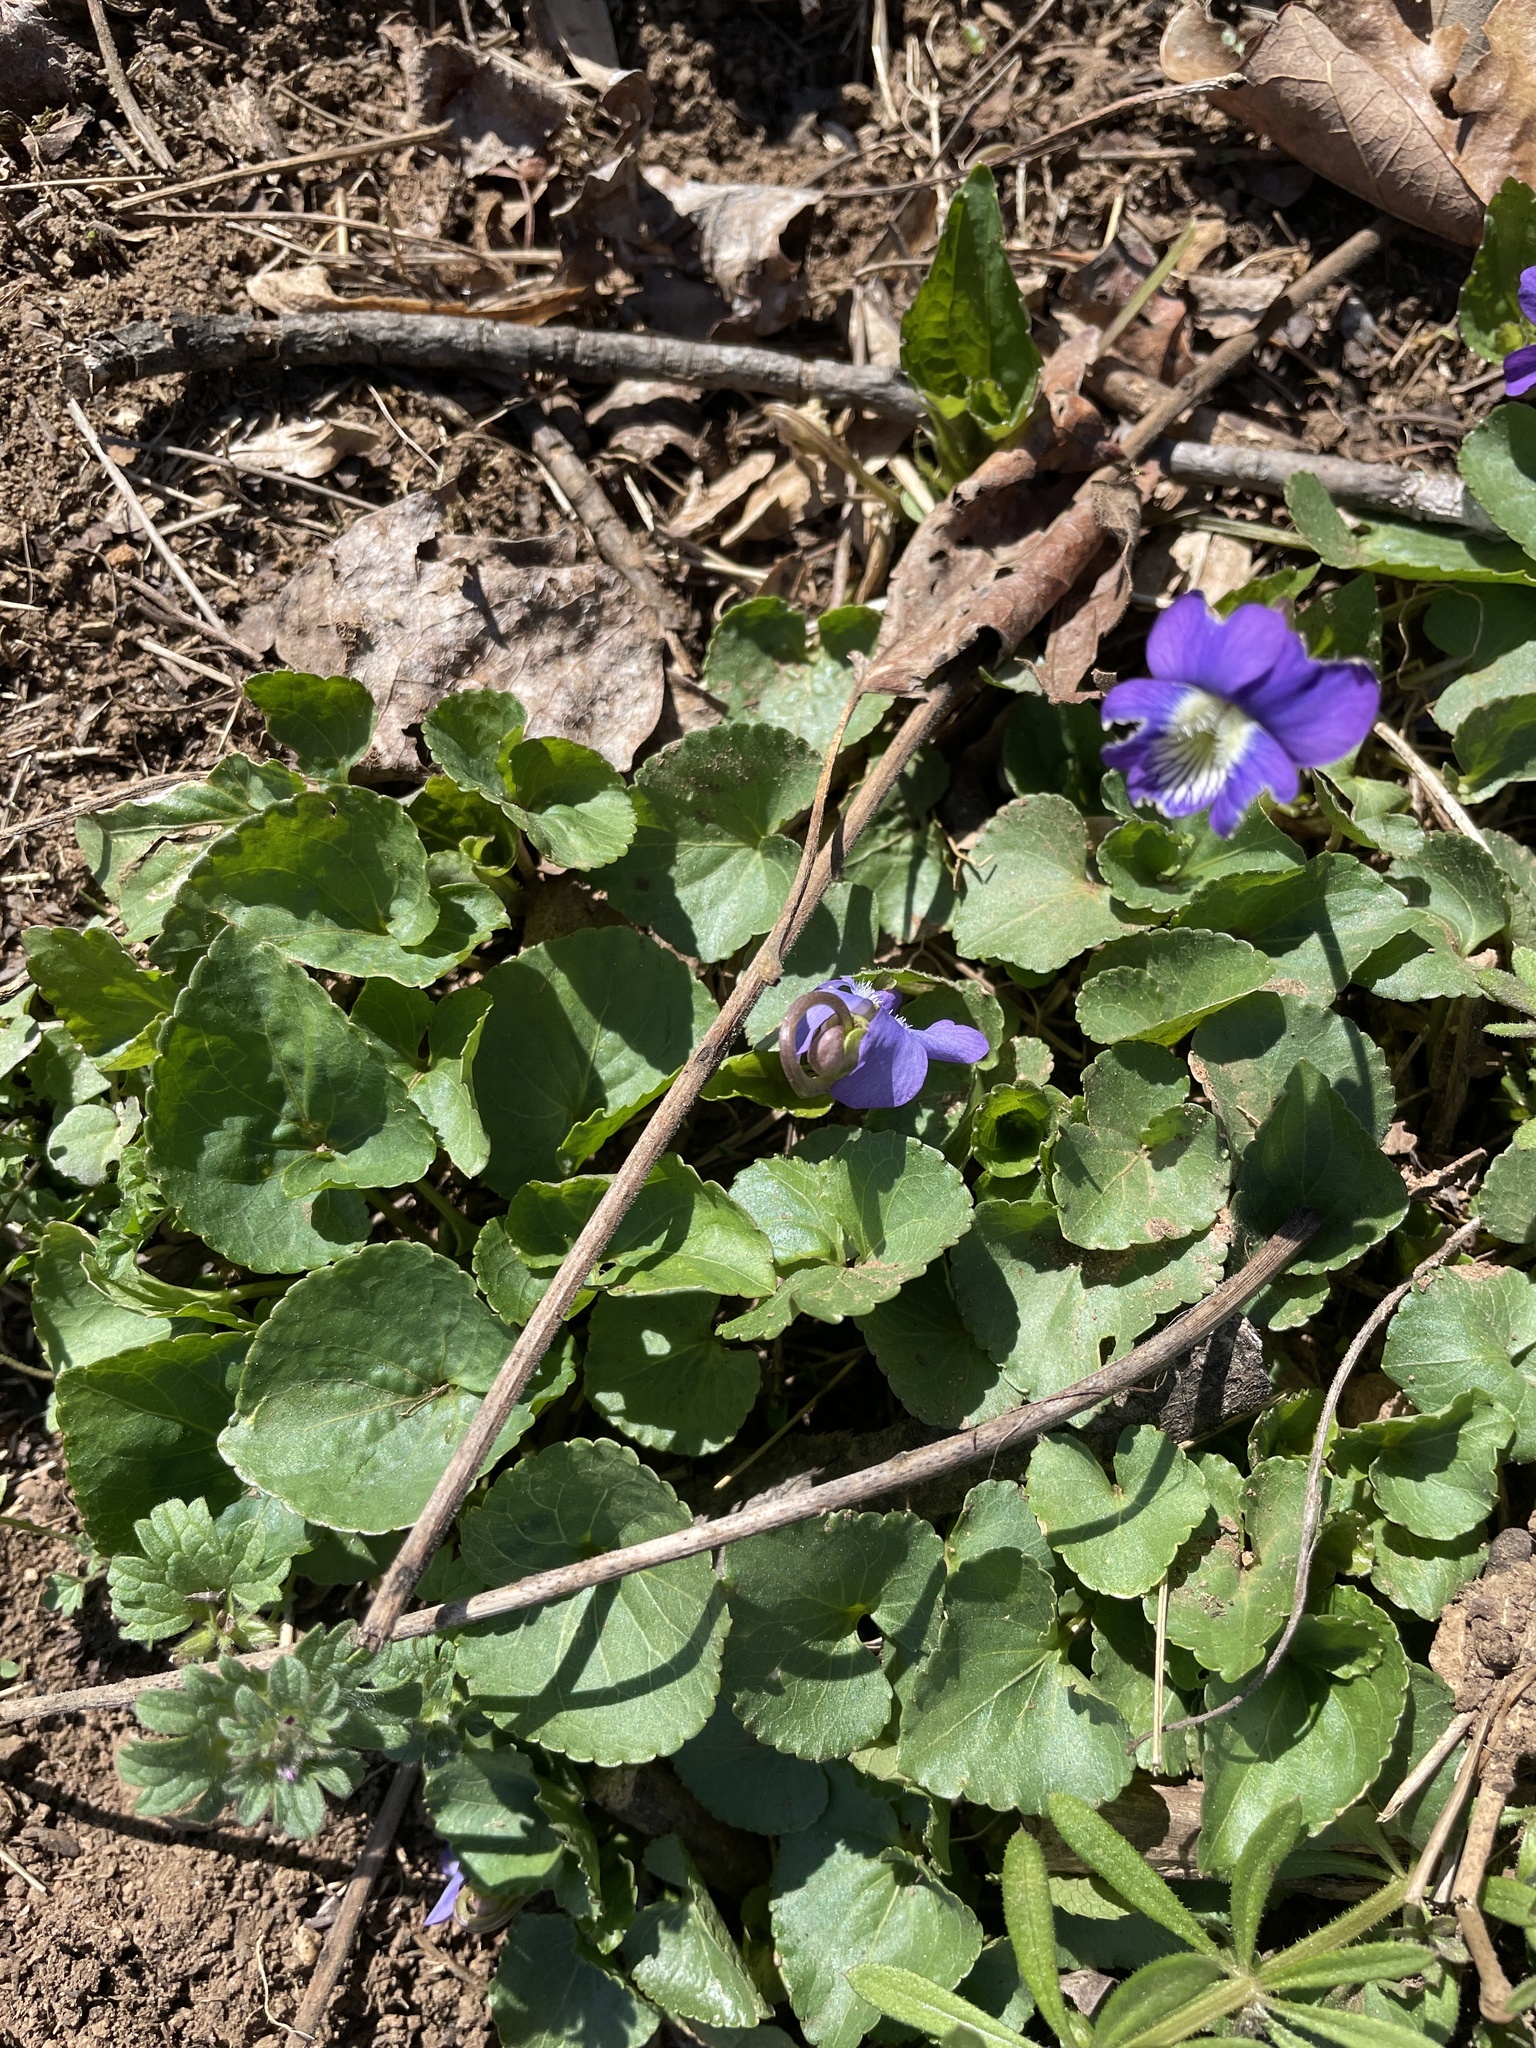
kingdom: Plantae
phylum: Tracheophyta
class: Magnoliopsida
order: Malpighiales
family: Violaceae
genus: Viola
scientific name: Viola sororia
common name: Dooryard violet
